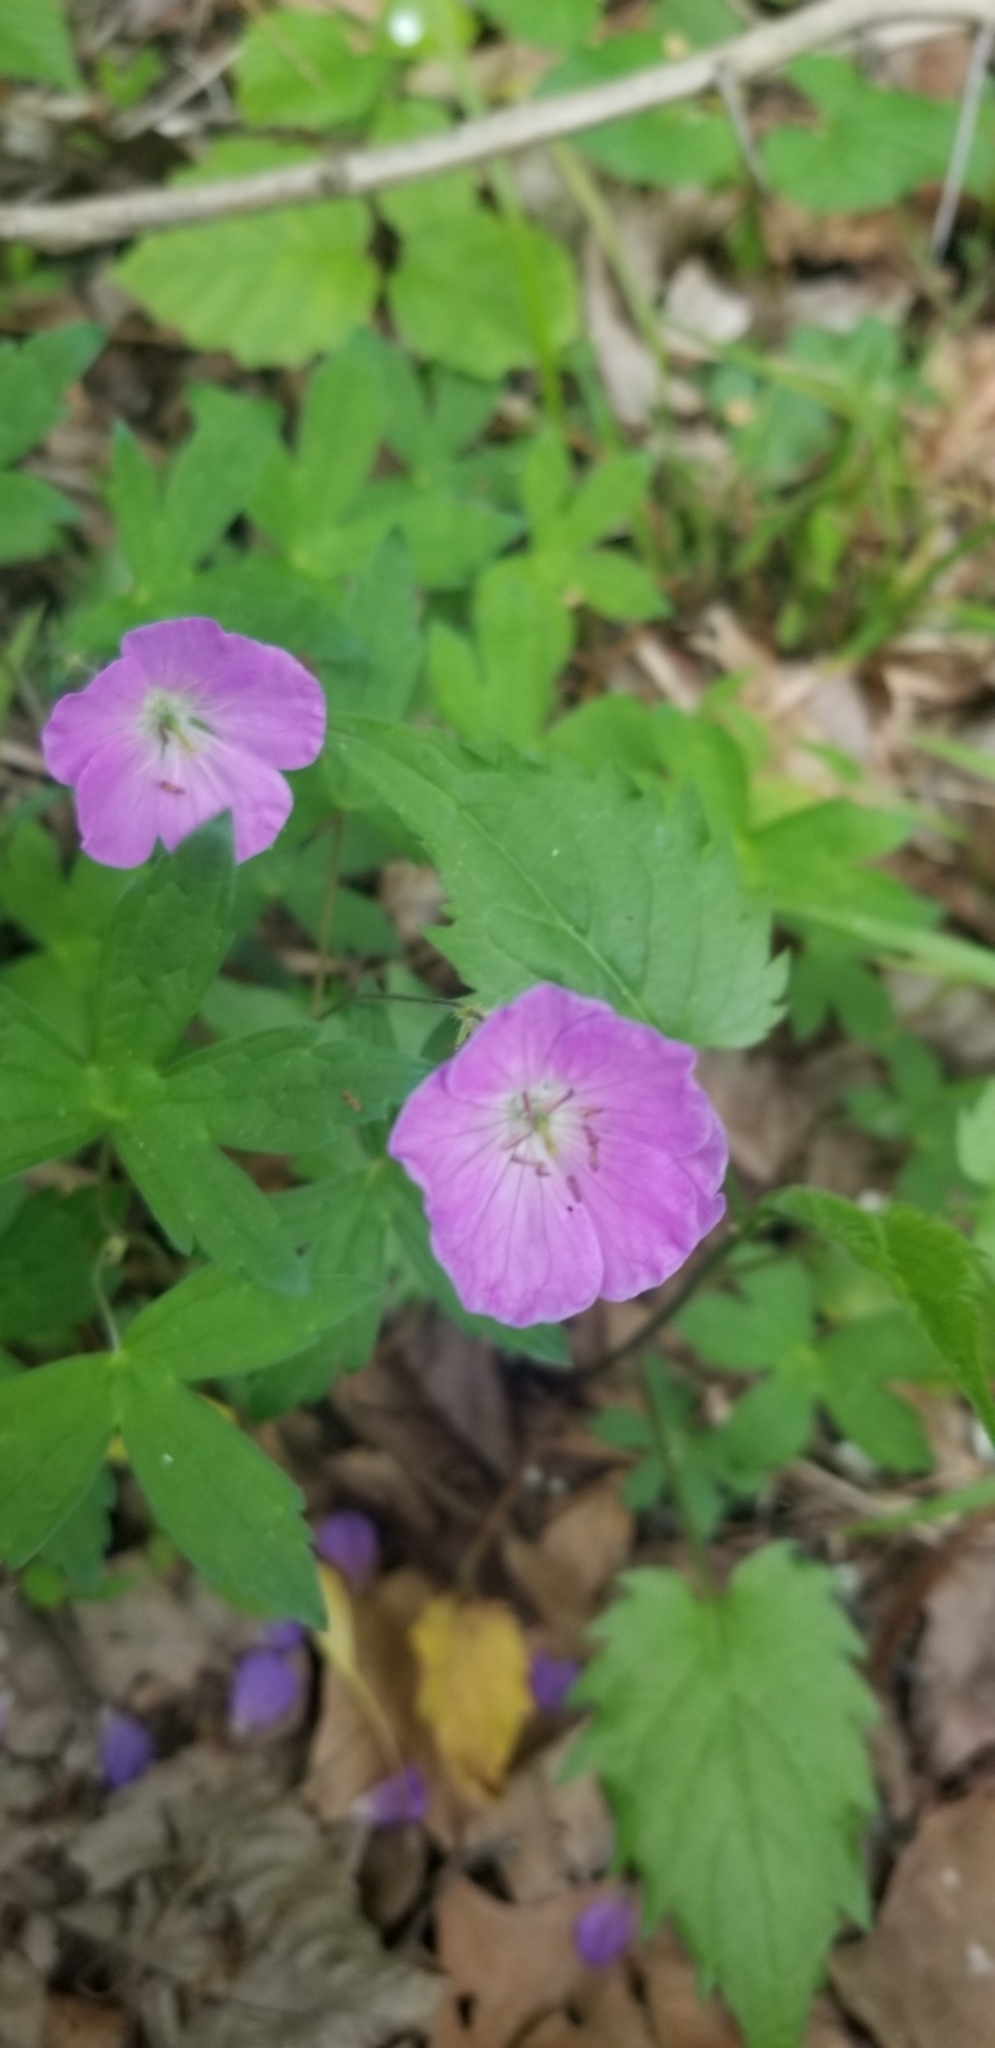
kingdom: Plantae
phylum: Tracheophyta
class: Magnoliopsida
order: Geraniales
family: Geraniaceae
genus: Geranium
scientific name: Geranium maculatum
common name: Spotted geranium
